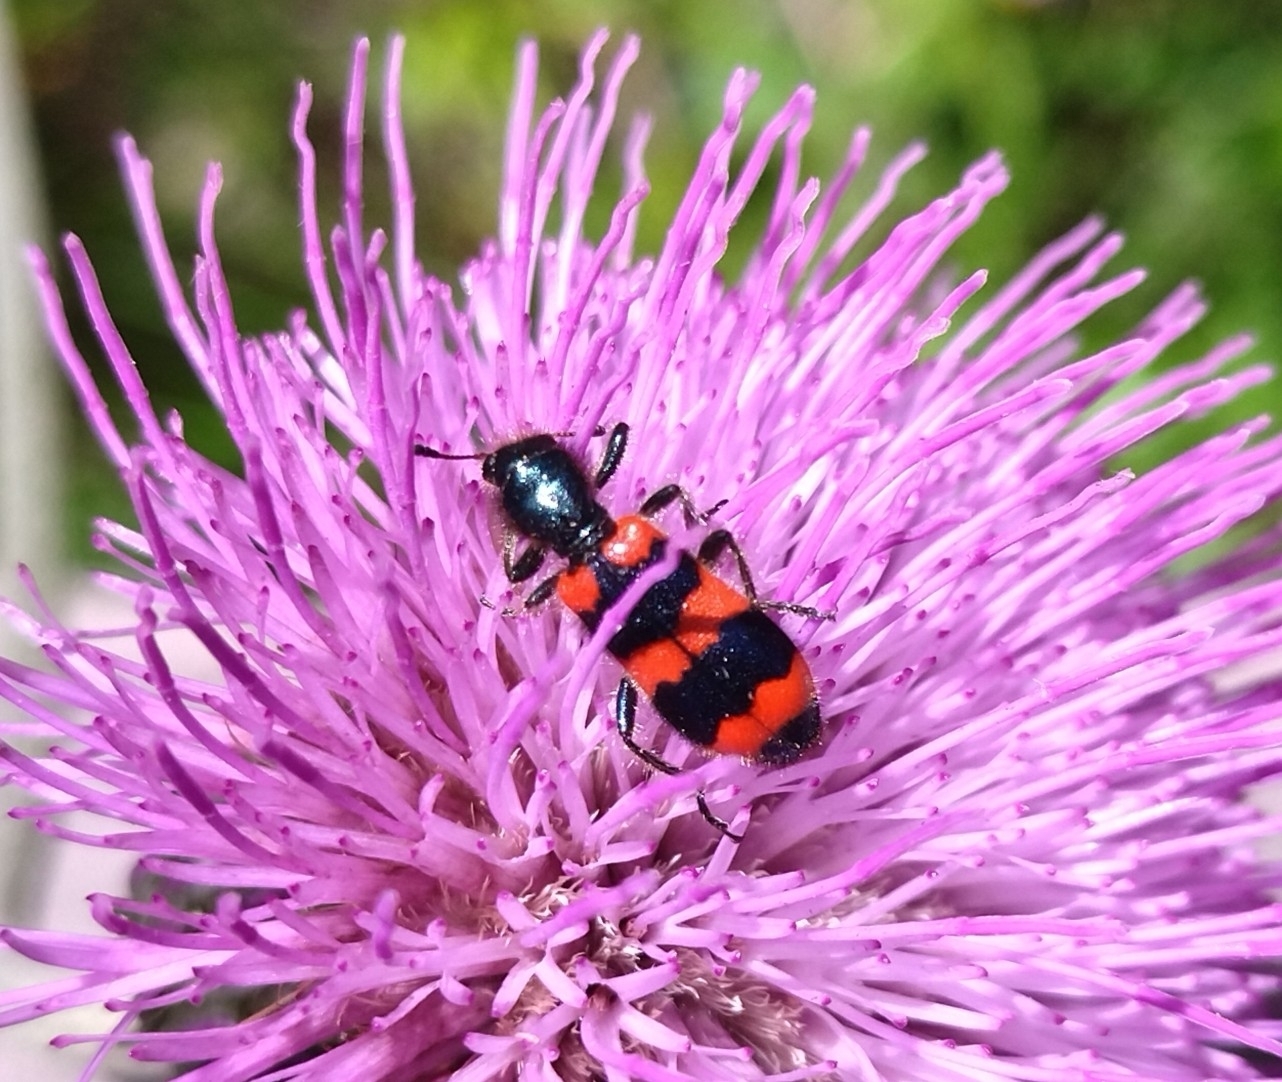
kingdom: Animalia
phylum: Arthropoda
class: Insecta
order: Coleoptera
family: Cleridae
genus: Trichodes
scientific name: Trichodes apiarius
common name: Bee-eating beetle
